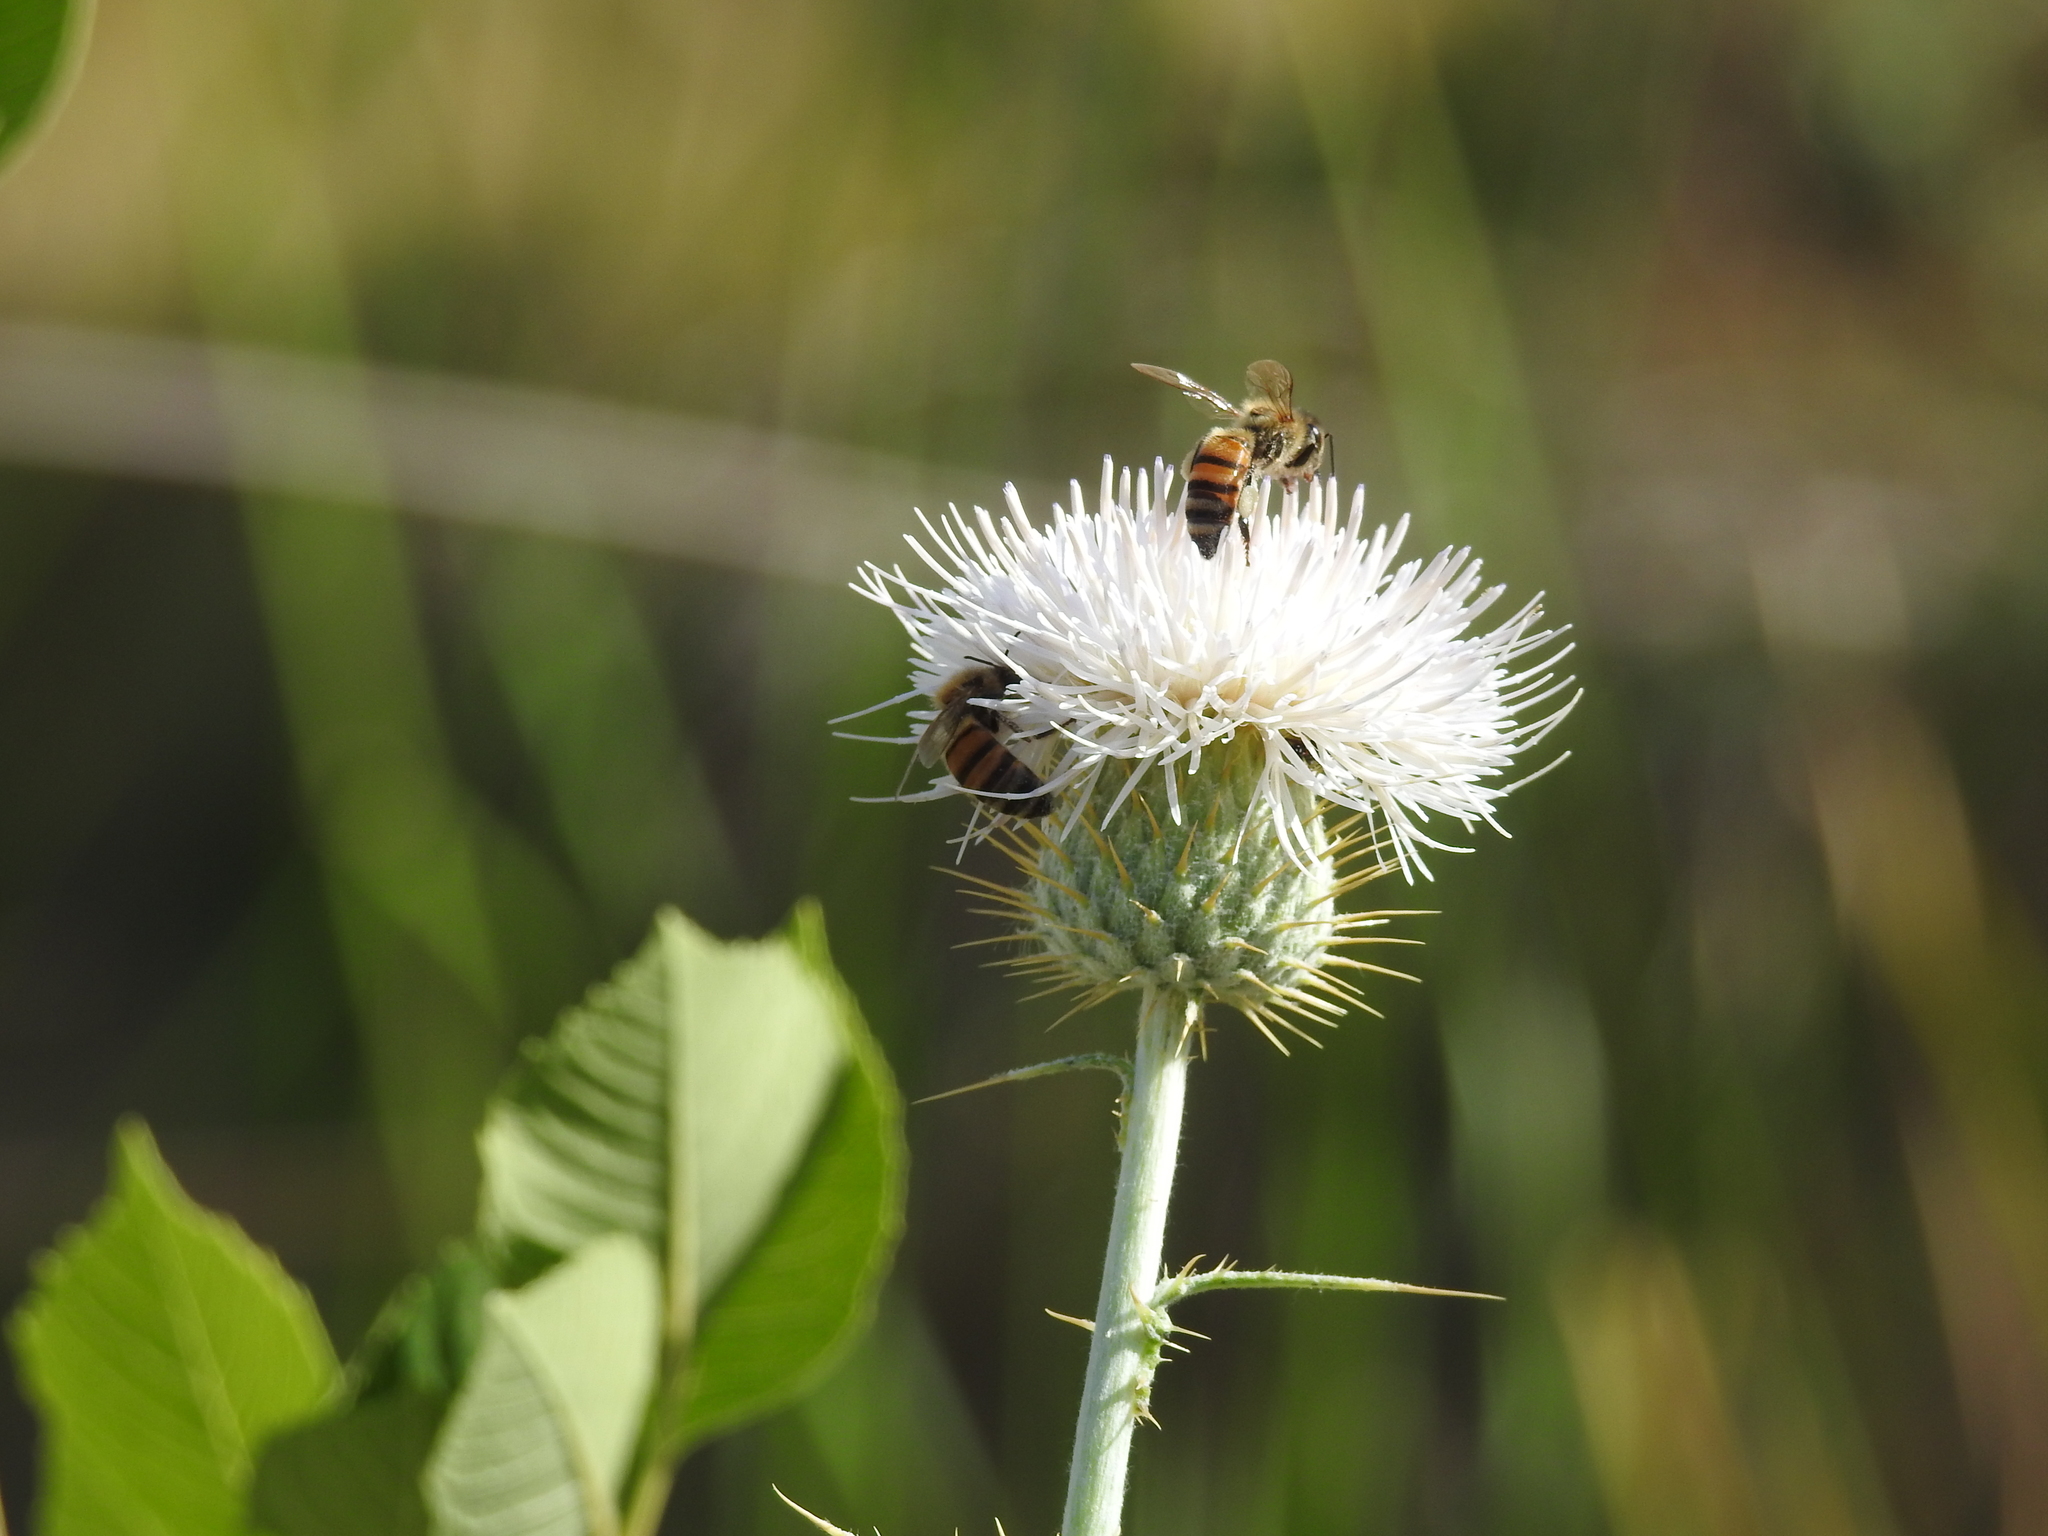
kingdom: Animalia
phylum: Arthropoda
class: Insecta
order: Hymenoptera
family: Apidae
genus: Apis
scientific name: Apis mellifera
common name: Honey bee
